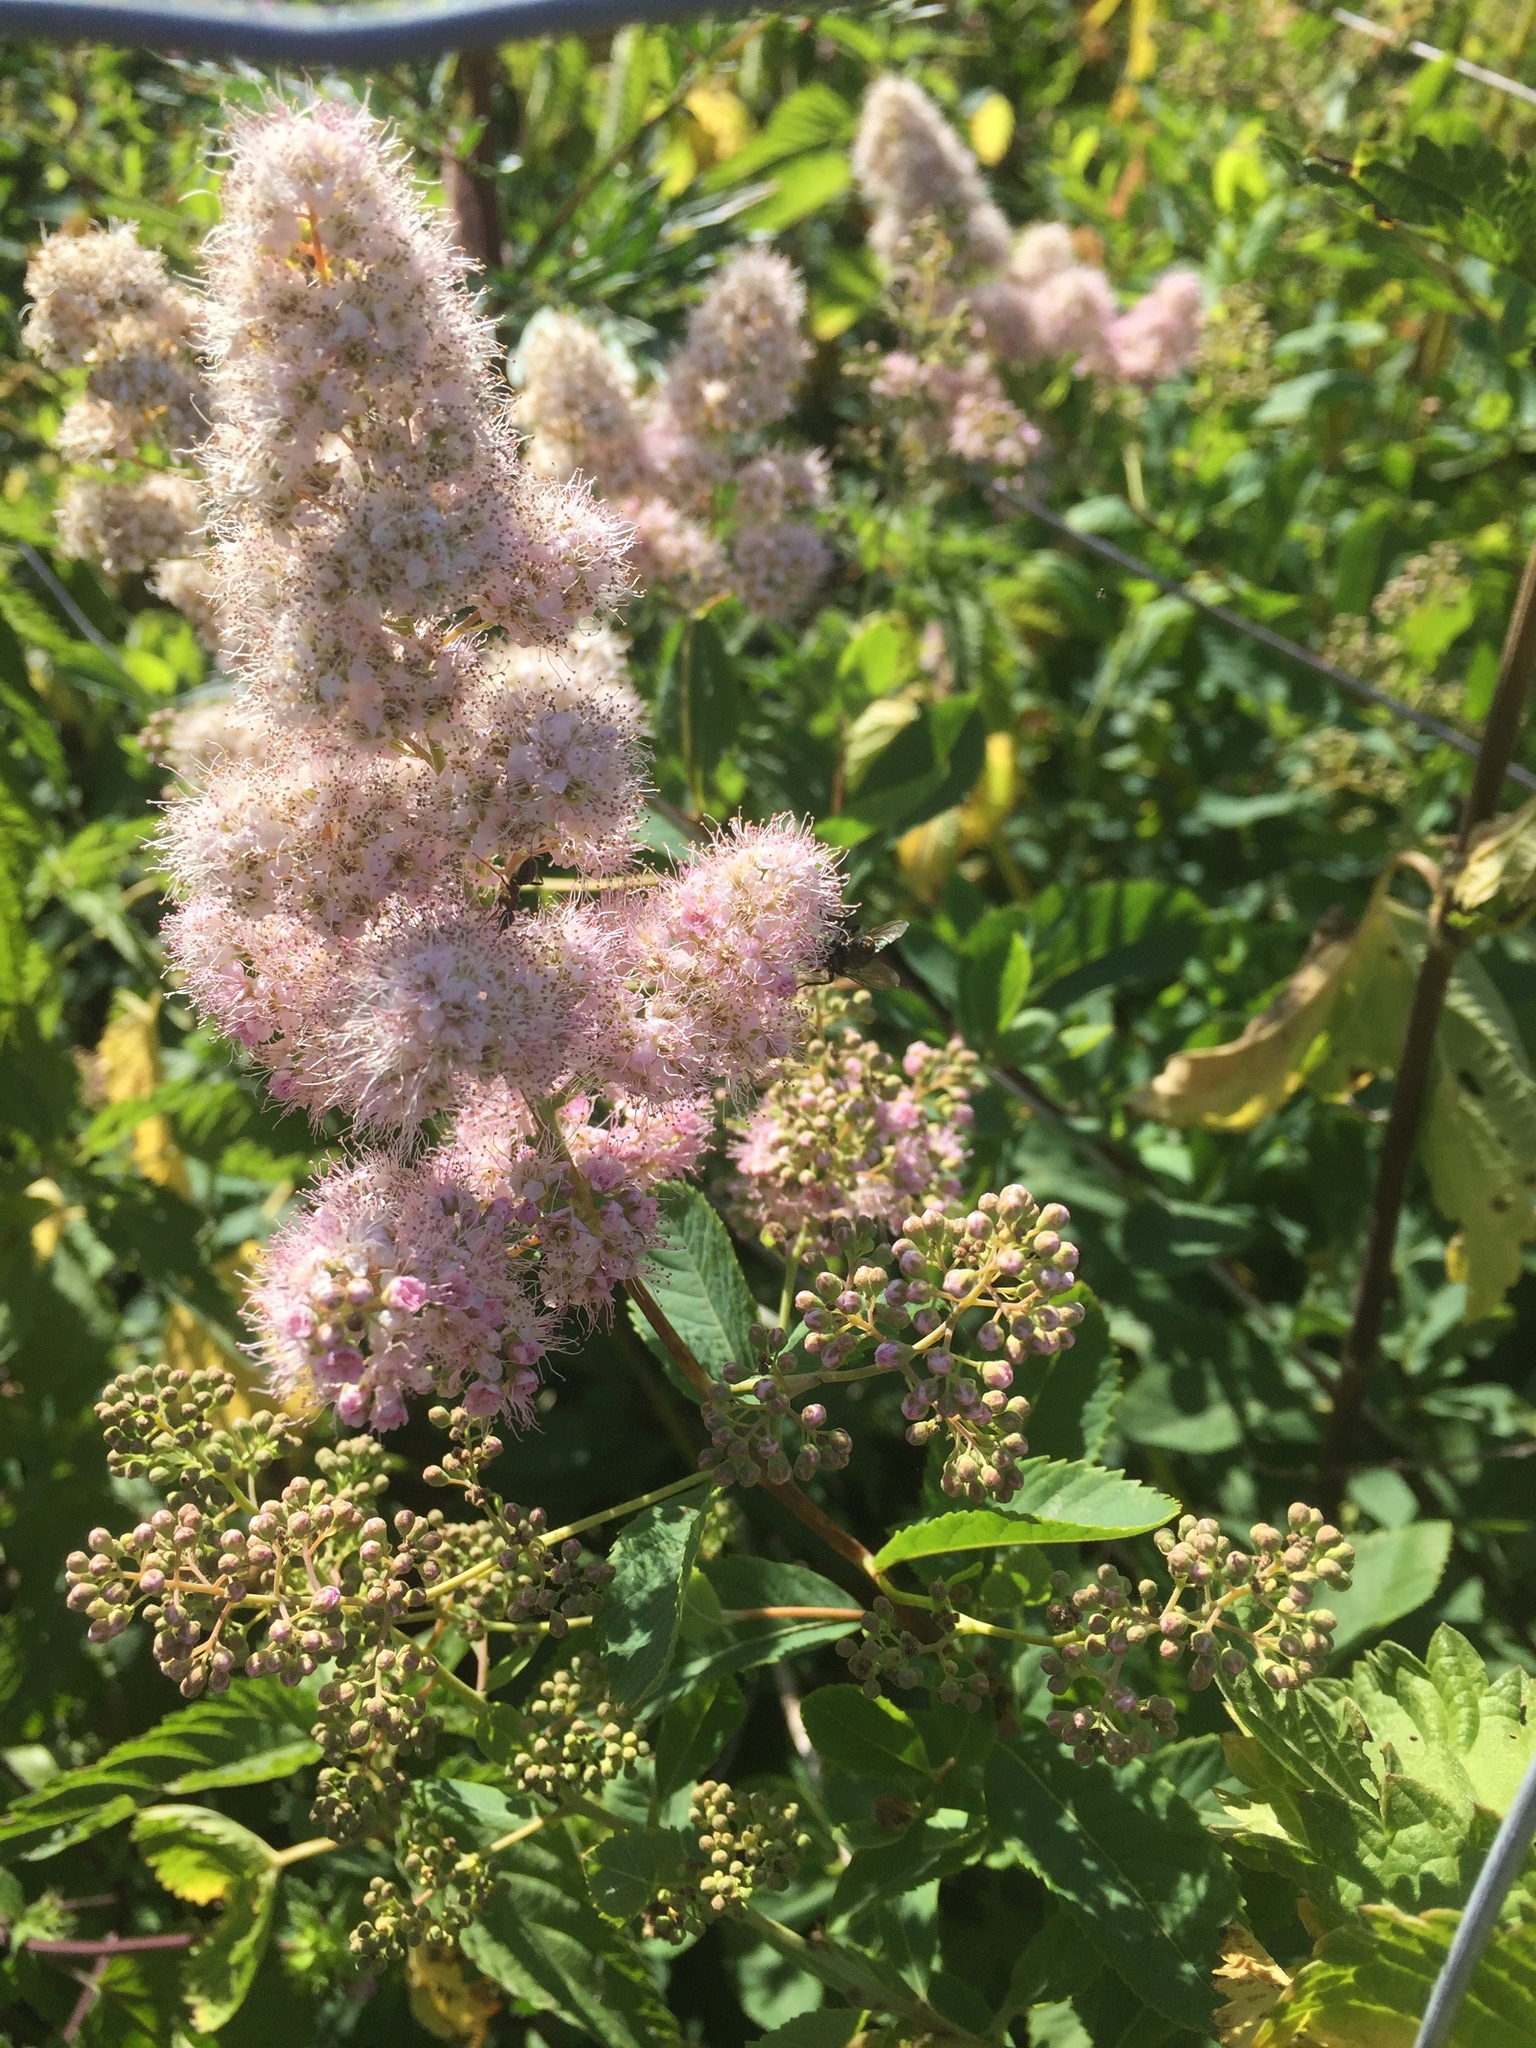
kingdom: Plantae
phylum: Tracheophyta
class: Magnoliopsida
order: Rosales
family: Rosaceae
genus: Spiraea
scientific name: Spiraea salicifolia
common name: Bridewort
